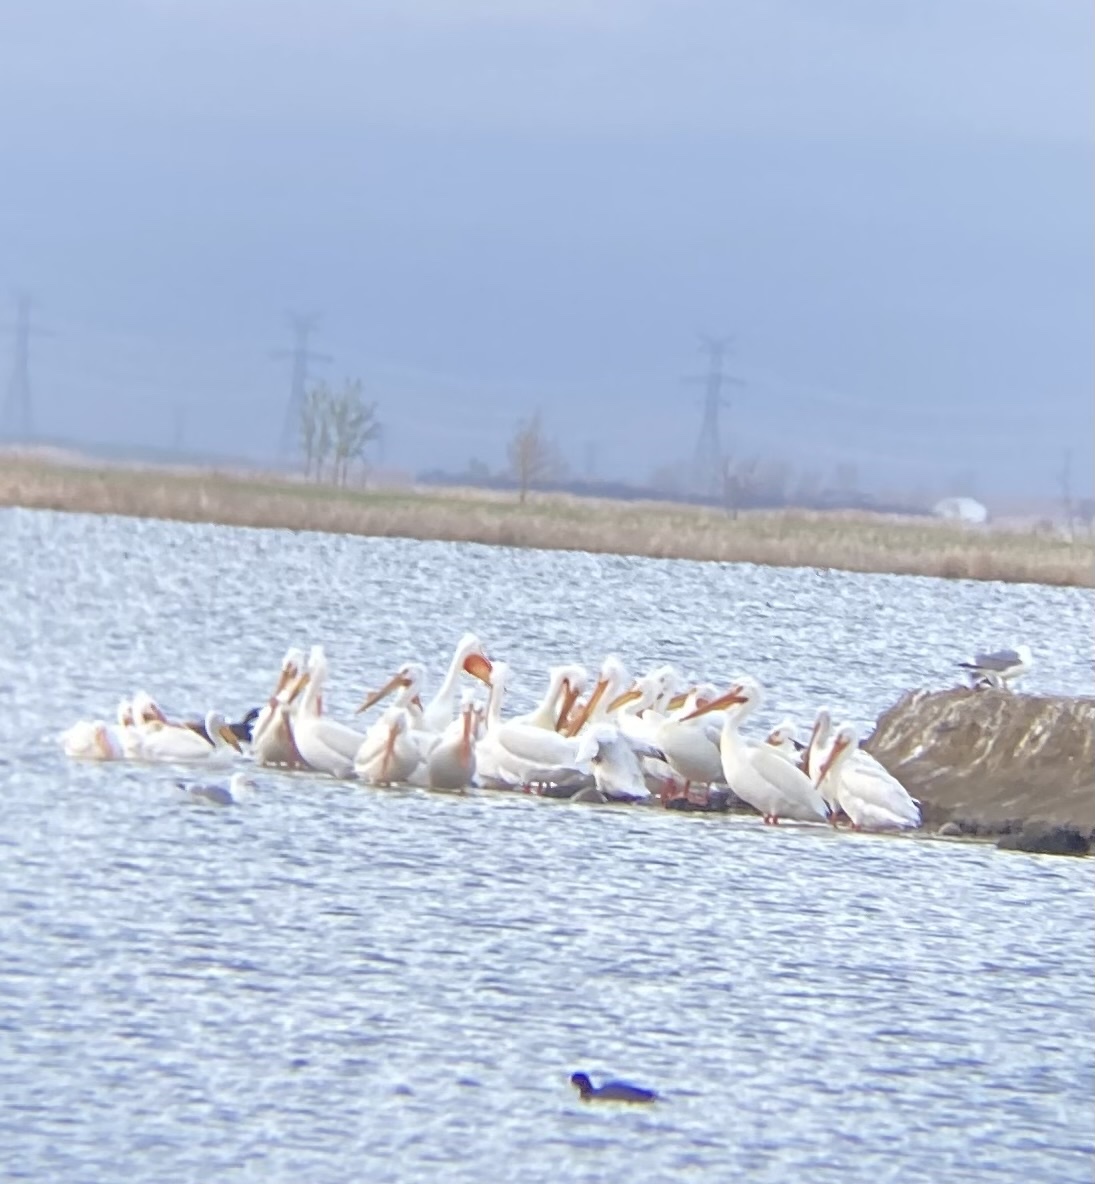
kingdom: Animalia
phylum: Chordata
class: Aves
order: Pelecaniformes
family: Pelecanidae
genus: Pelecanus
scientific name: Pelecanus erythrorhynchos
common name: American white pelican
